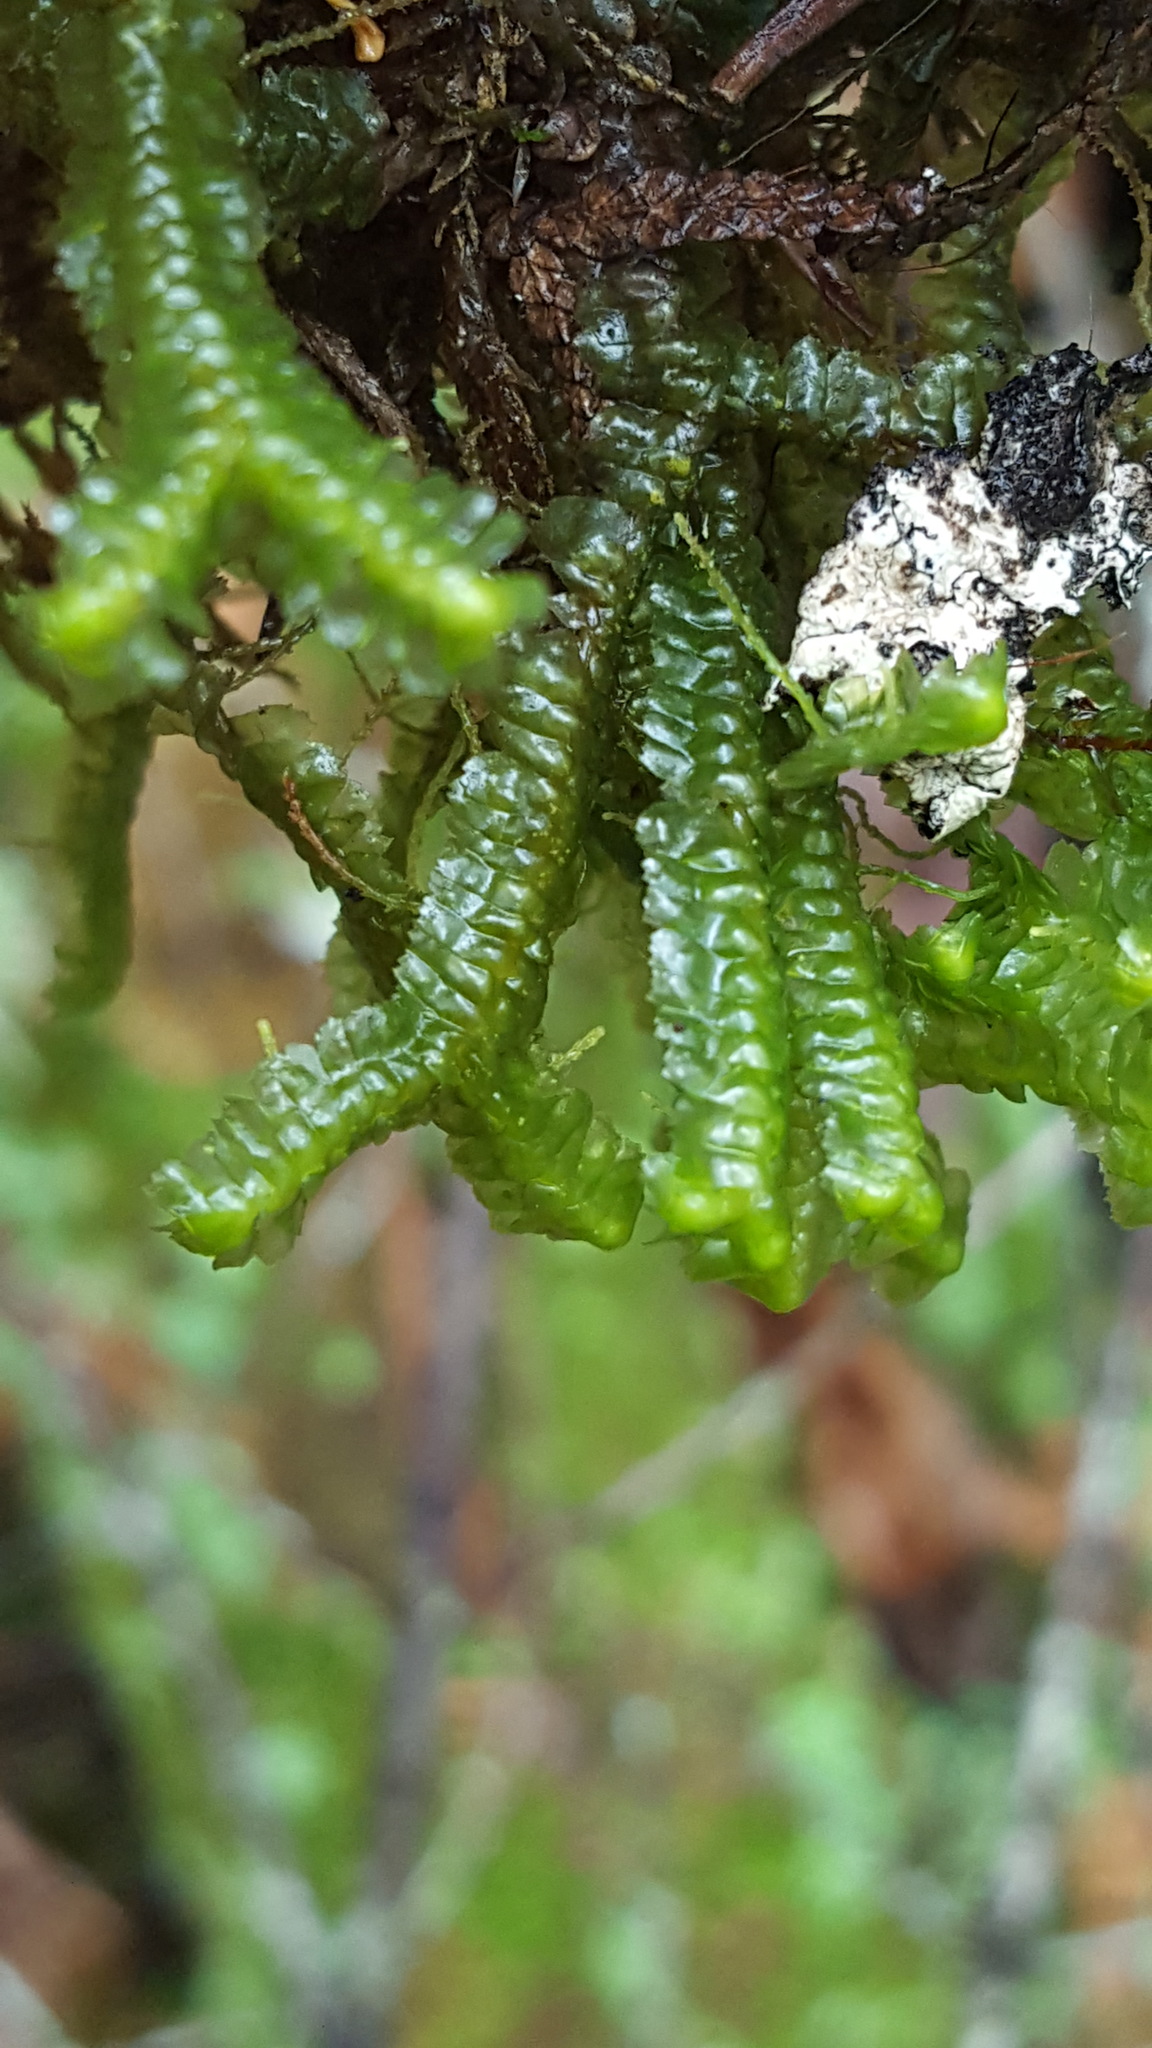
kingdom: Plantae
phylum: Marchantiophyta
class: Jungermanniopsida
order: Jungermanniales
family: Lepidoziaceae
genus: Bazzania
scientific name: Bazzania trilobata
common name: Three-lobed whipwort
